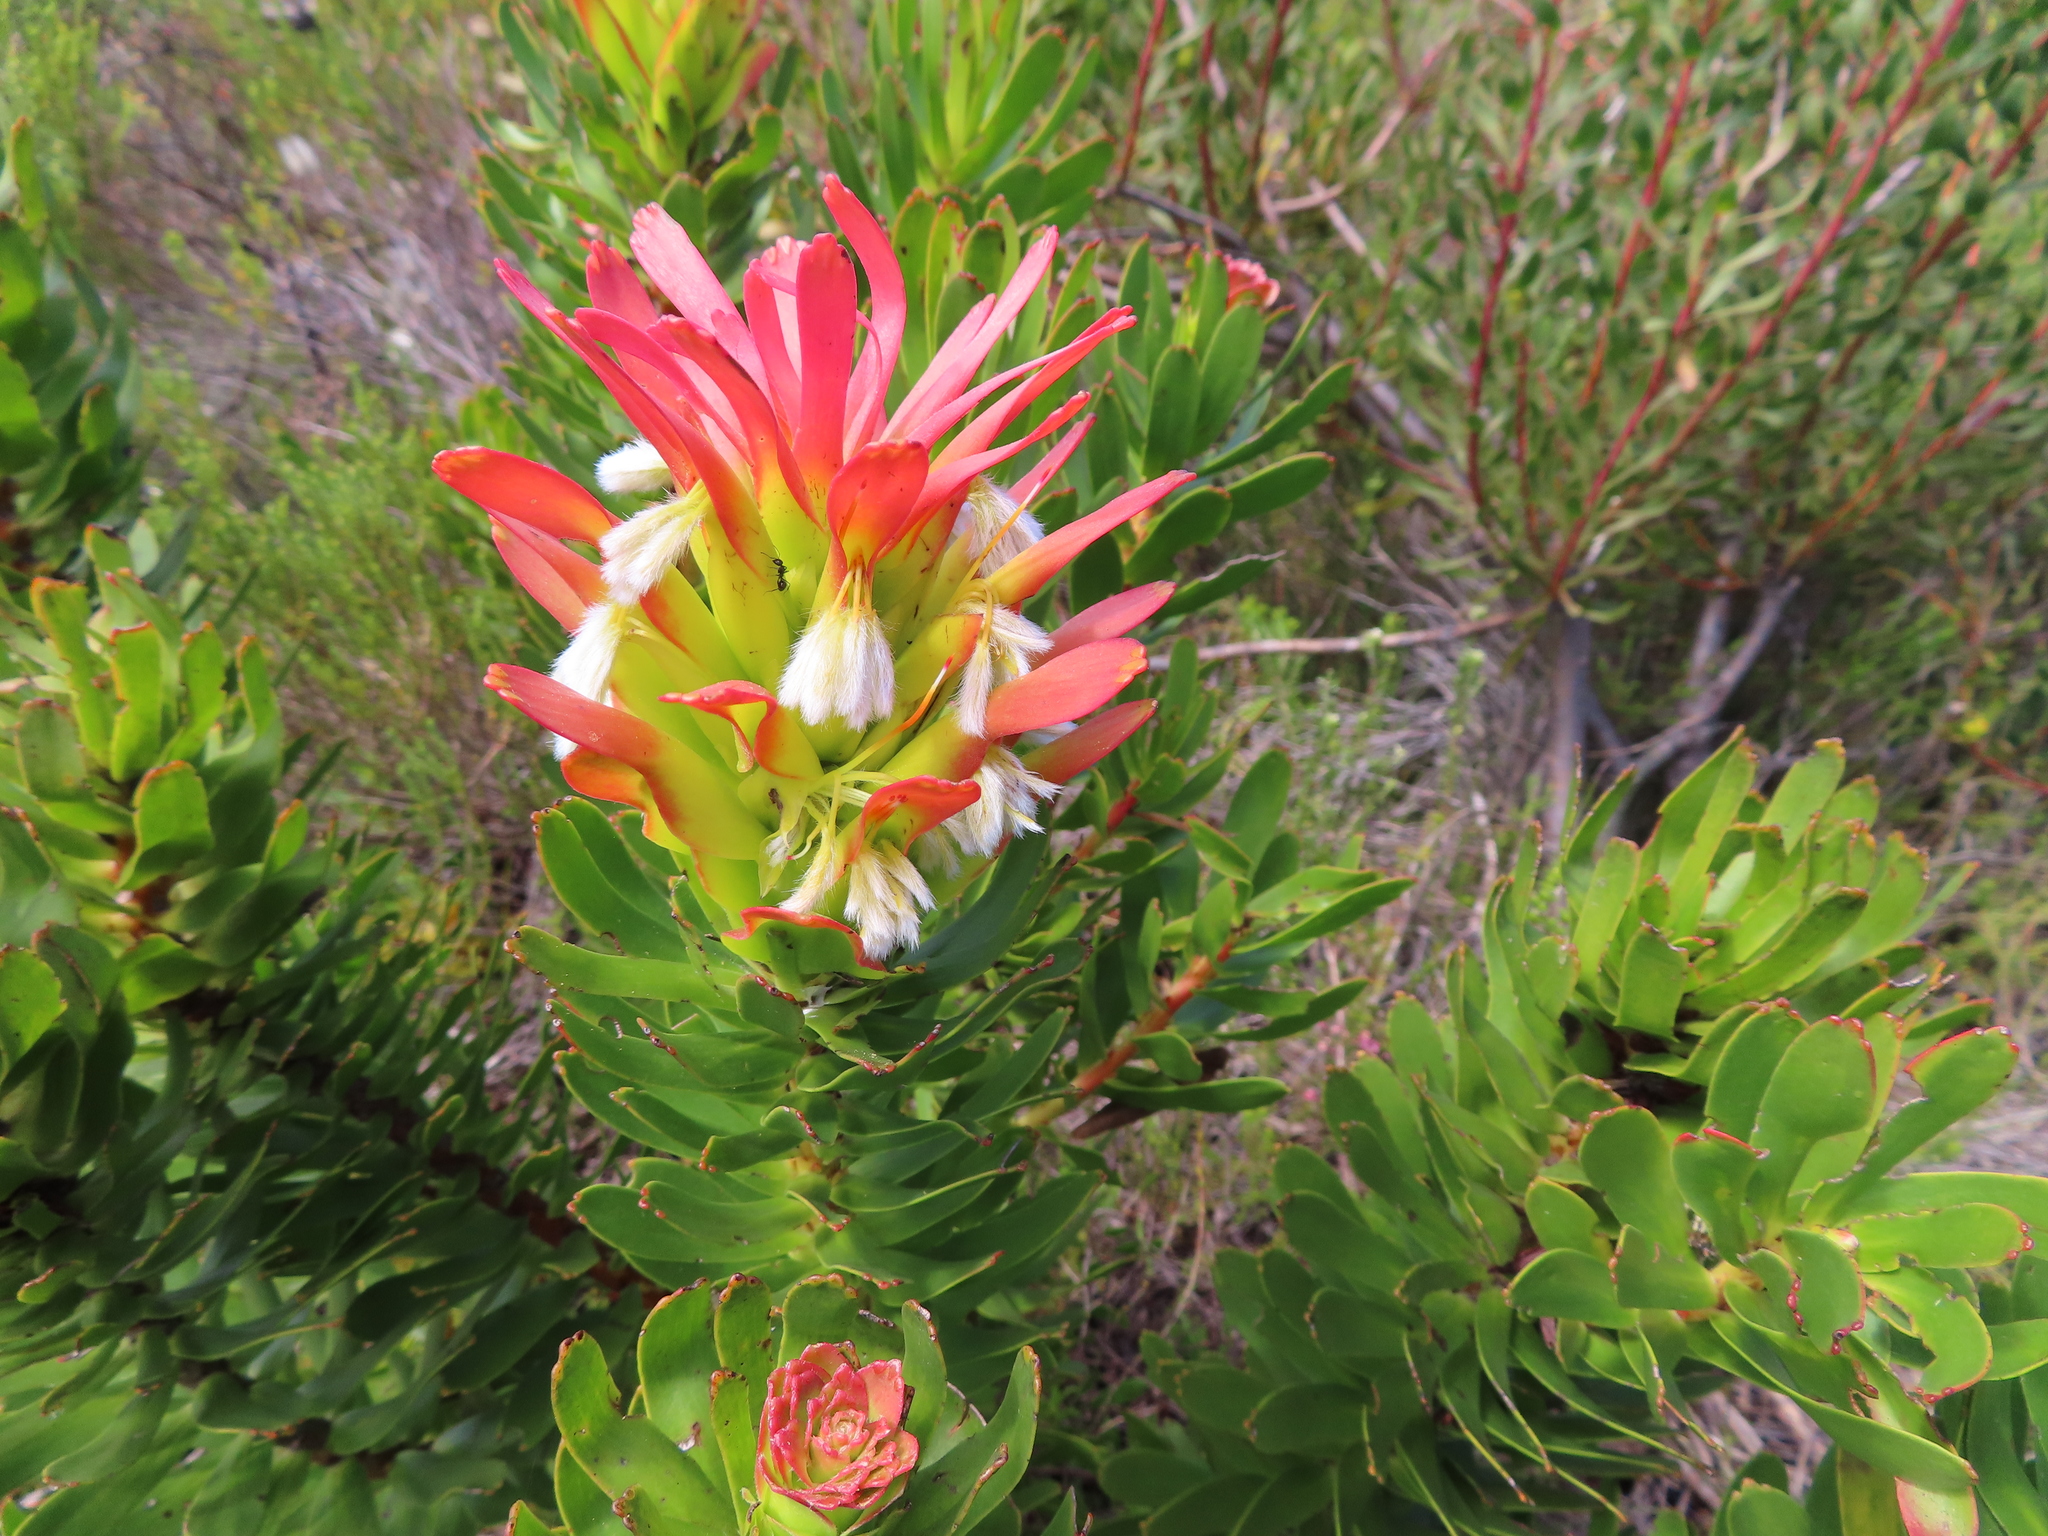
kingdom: Plantae
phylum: Tracheophyta
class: Magnoliopsida
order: Proteales
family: Proteaceae
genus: Mimetes
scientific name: Mimetes cucullatus
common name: Common pagoda
